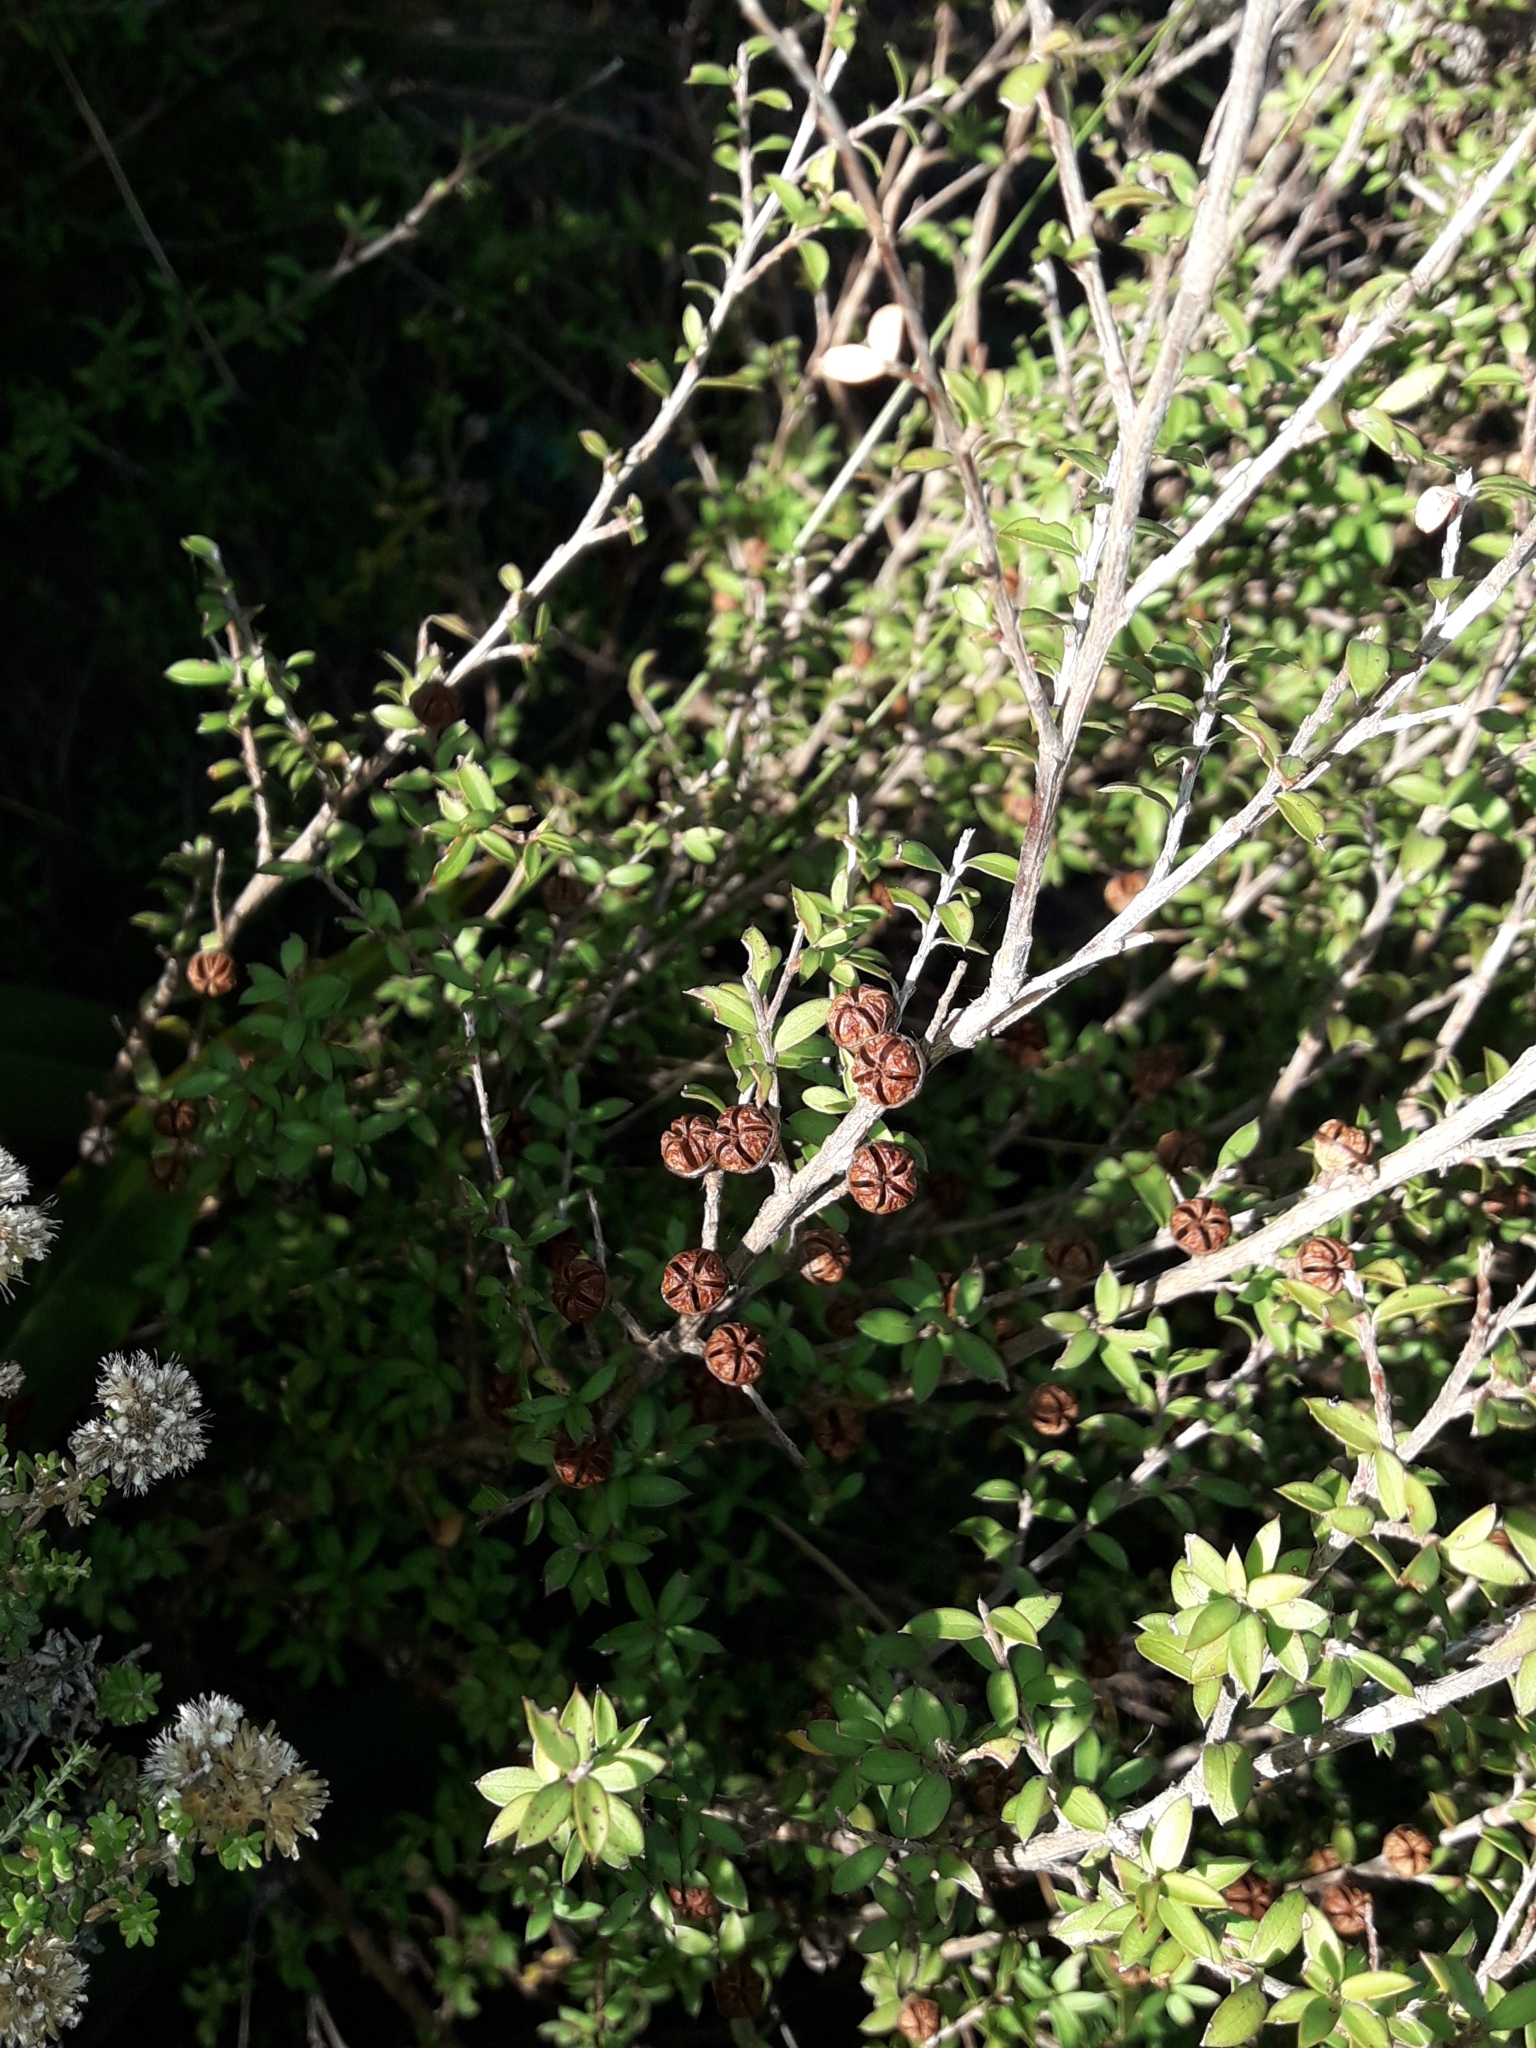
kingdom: Plantae
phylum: Tracheophyta
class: Magnoliopsida
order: Myrtales
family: Myrtaceae
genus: Leptospermum
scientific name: Leptospermum scoparium
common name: Broom tea-tree
